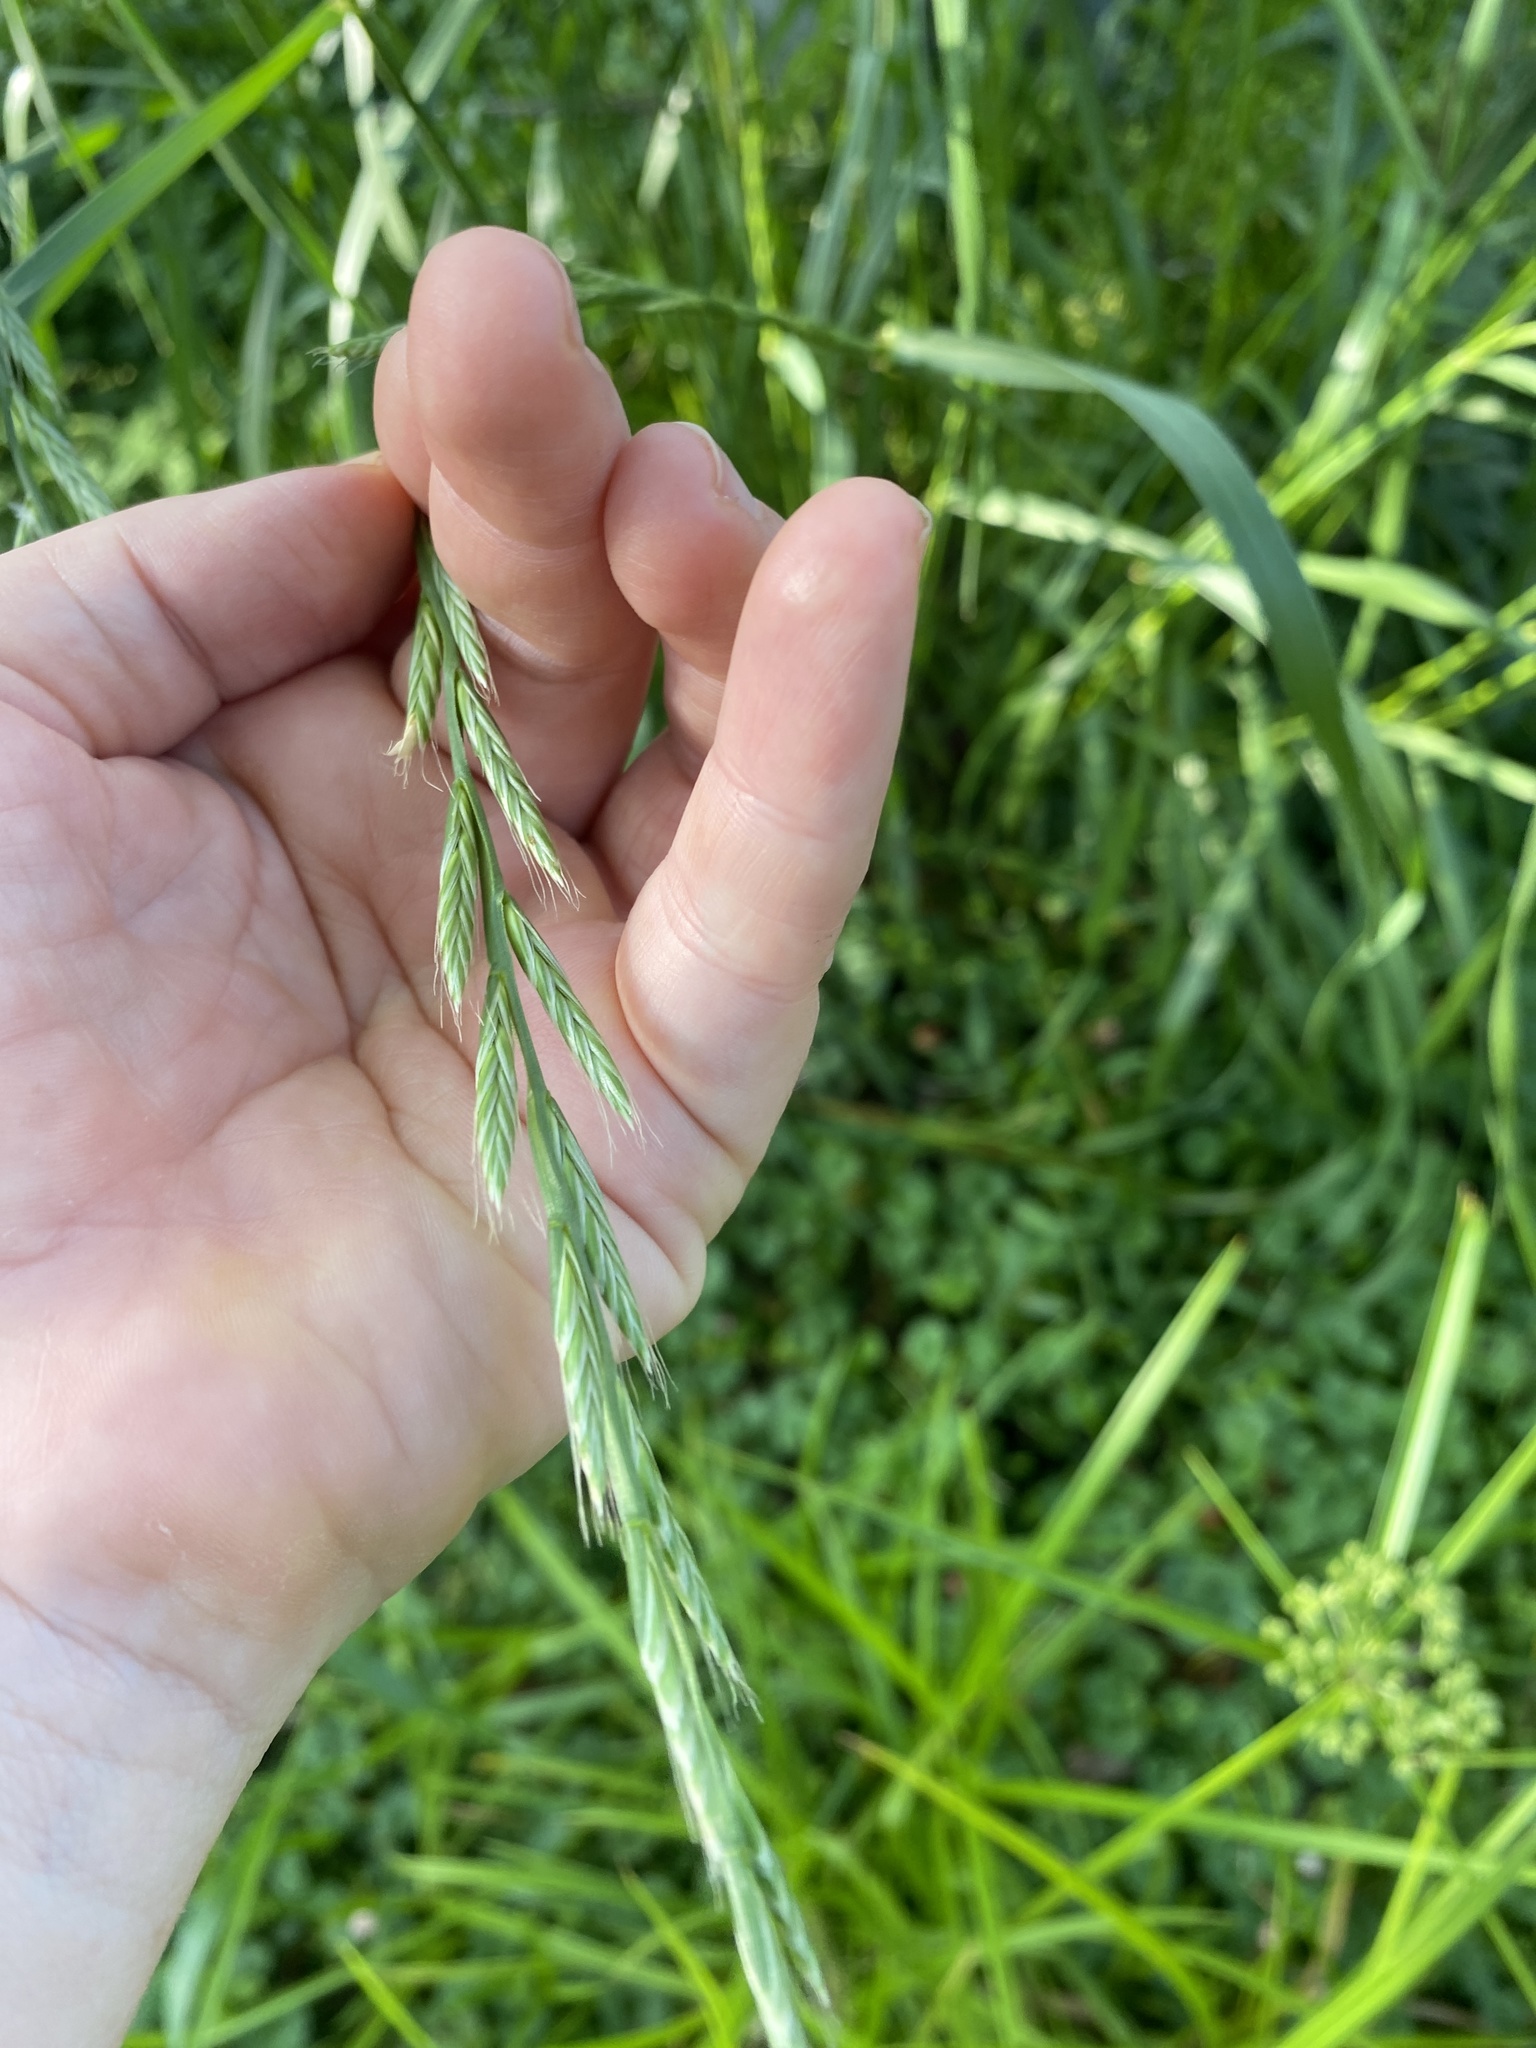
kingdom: Plantae
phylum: Tracheophyta
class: Liliopsida
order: Poales
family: Poaceae
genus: Lolium
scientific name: Lolium multiflorum
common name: Annual ryegrass
